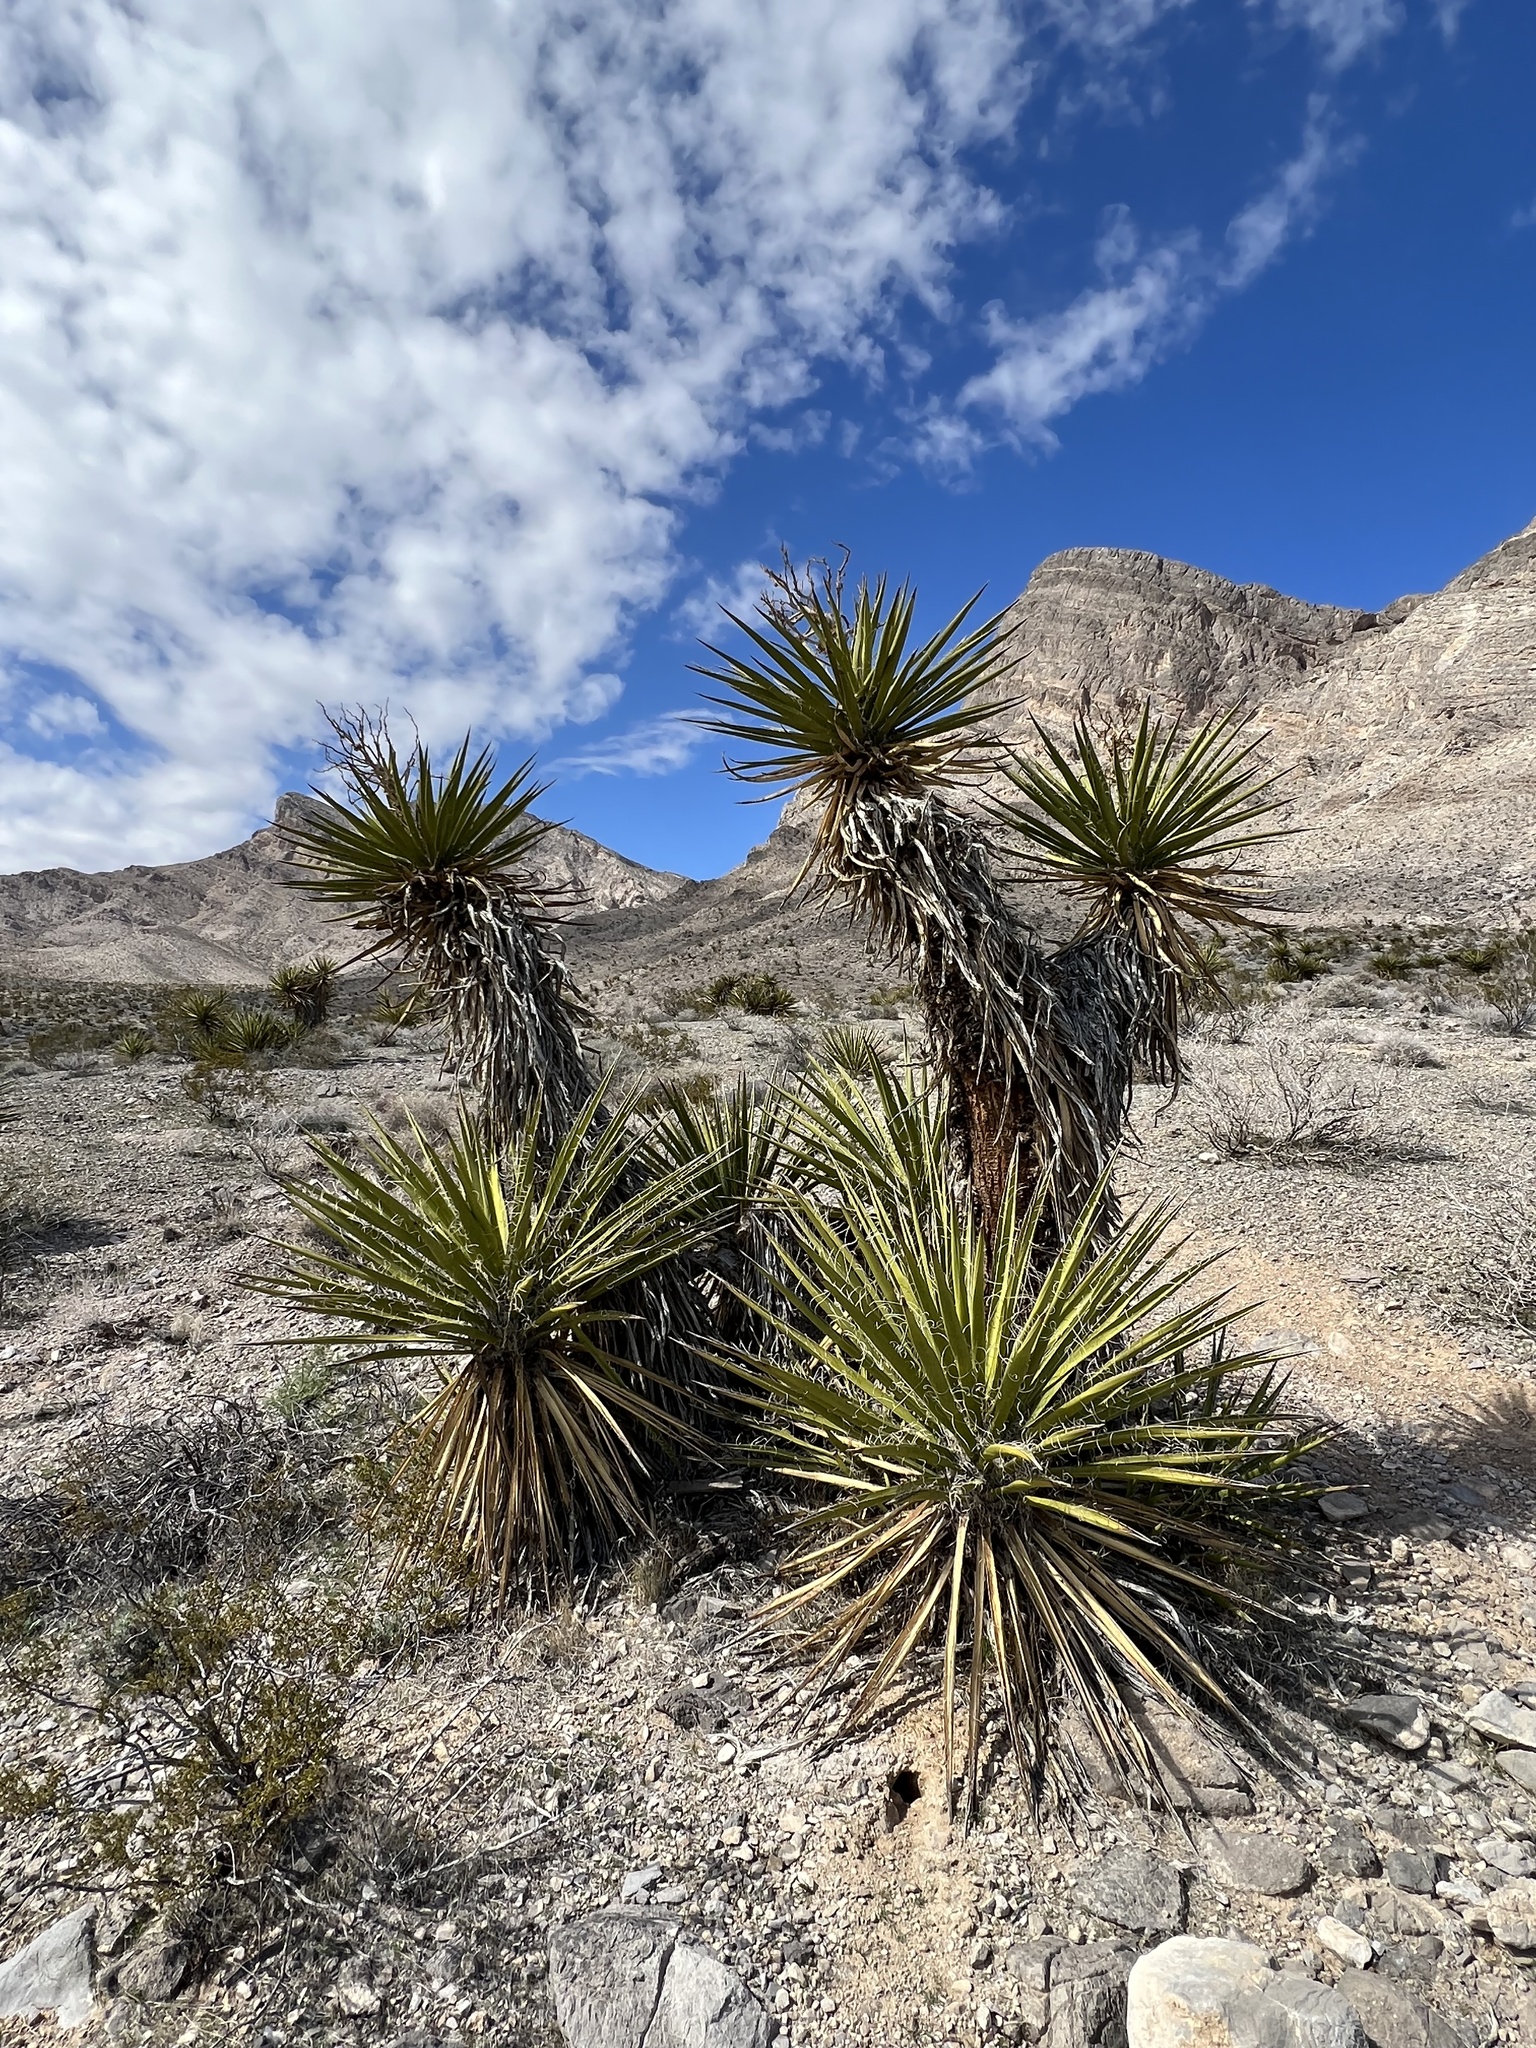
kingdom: Plantae
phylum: Tracheophyta
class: Liliopsida
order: Asparagales
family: Asparagaceae
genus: Yucca
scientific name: Yucca schidigera
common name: Mojave yucca
